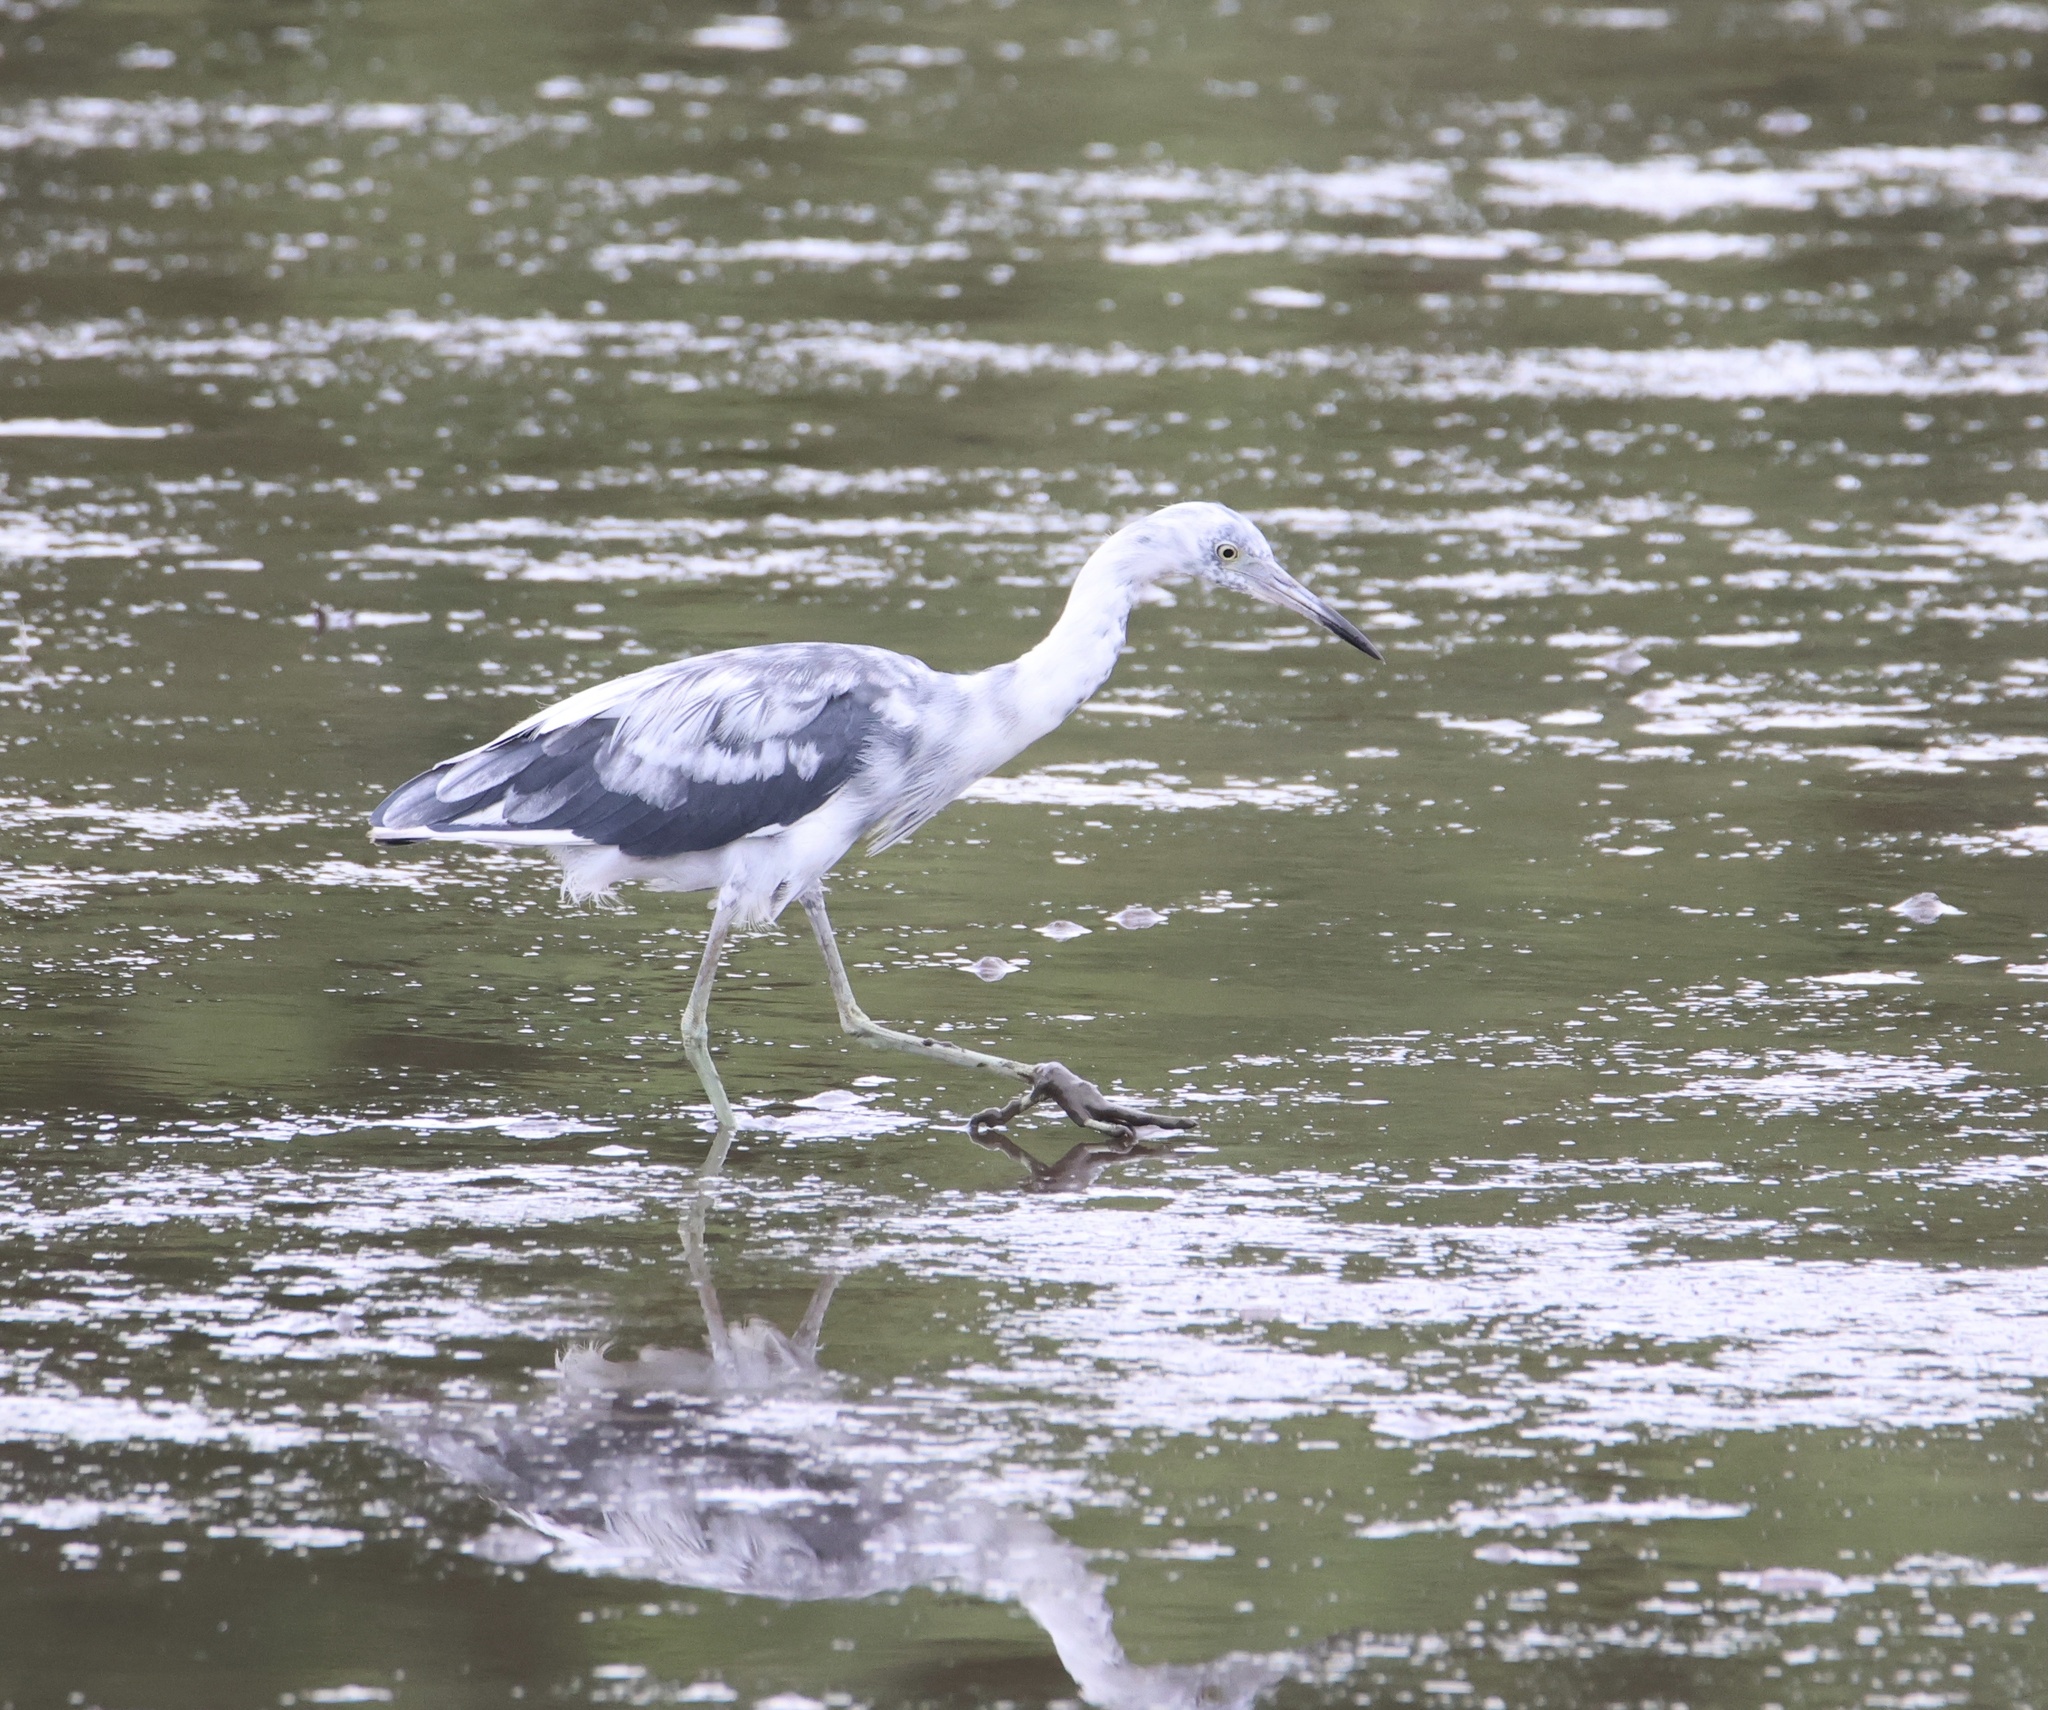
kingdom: Animalia
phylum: Chordata
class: Aves
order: Pelecaniformes
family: Ardeidae
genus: Egretta
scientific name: Egretta caerulea
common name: Little blue heron
